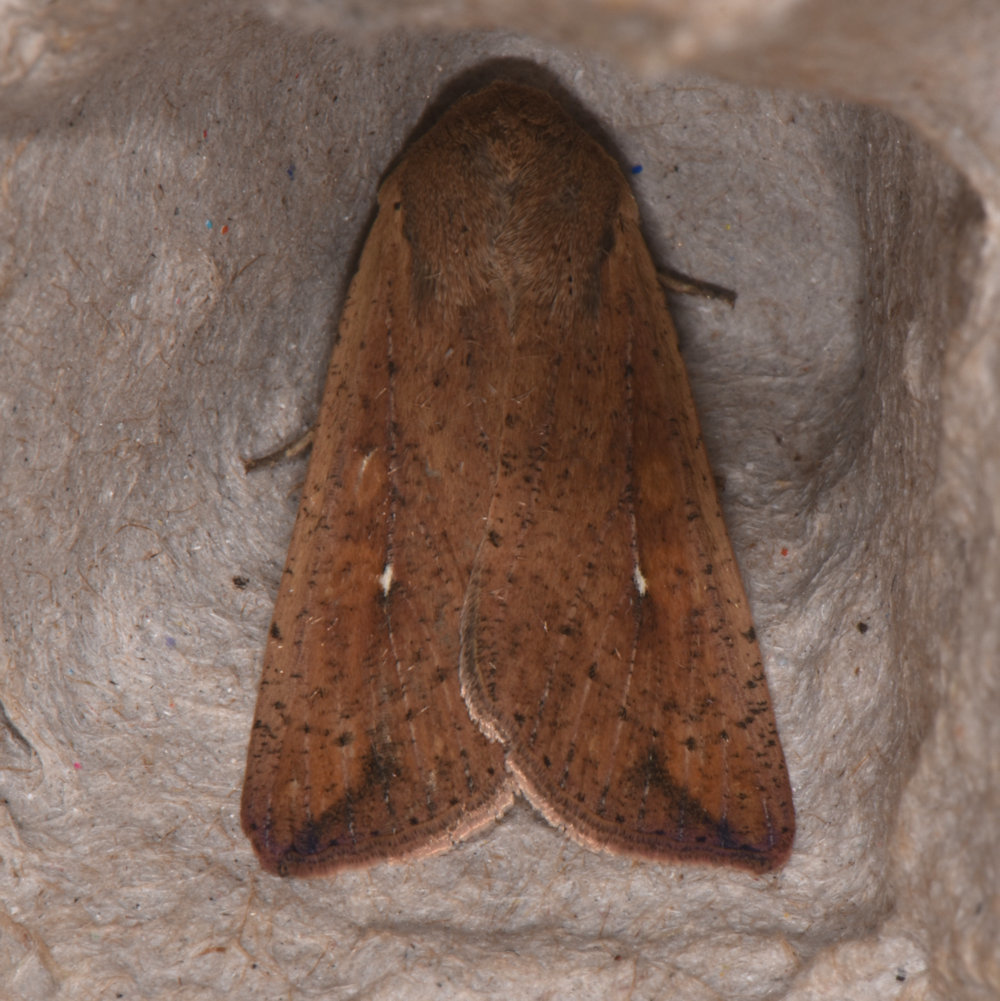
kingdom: Animalia
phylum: Arthropoda
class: Insecta
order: Lepidoptera
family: Noctuidae
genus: Mythimna
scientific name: Mythimna unipuncta
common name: White-speck
